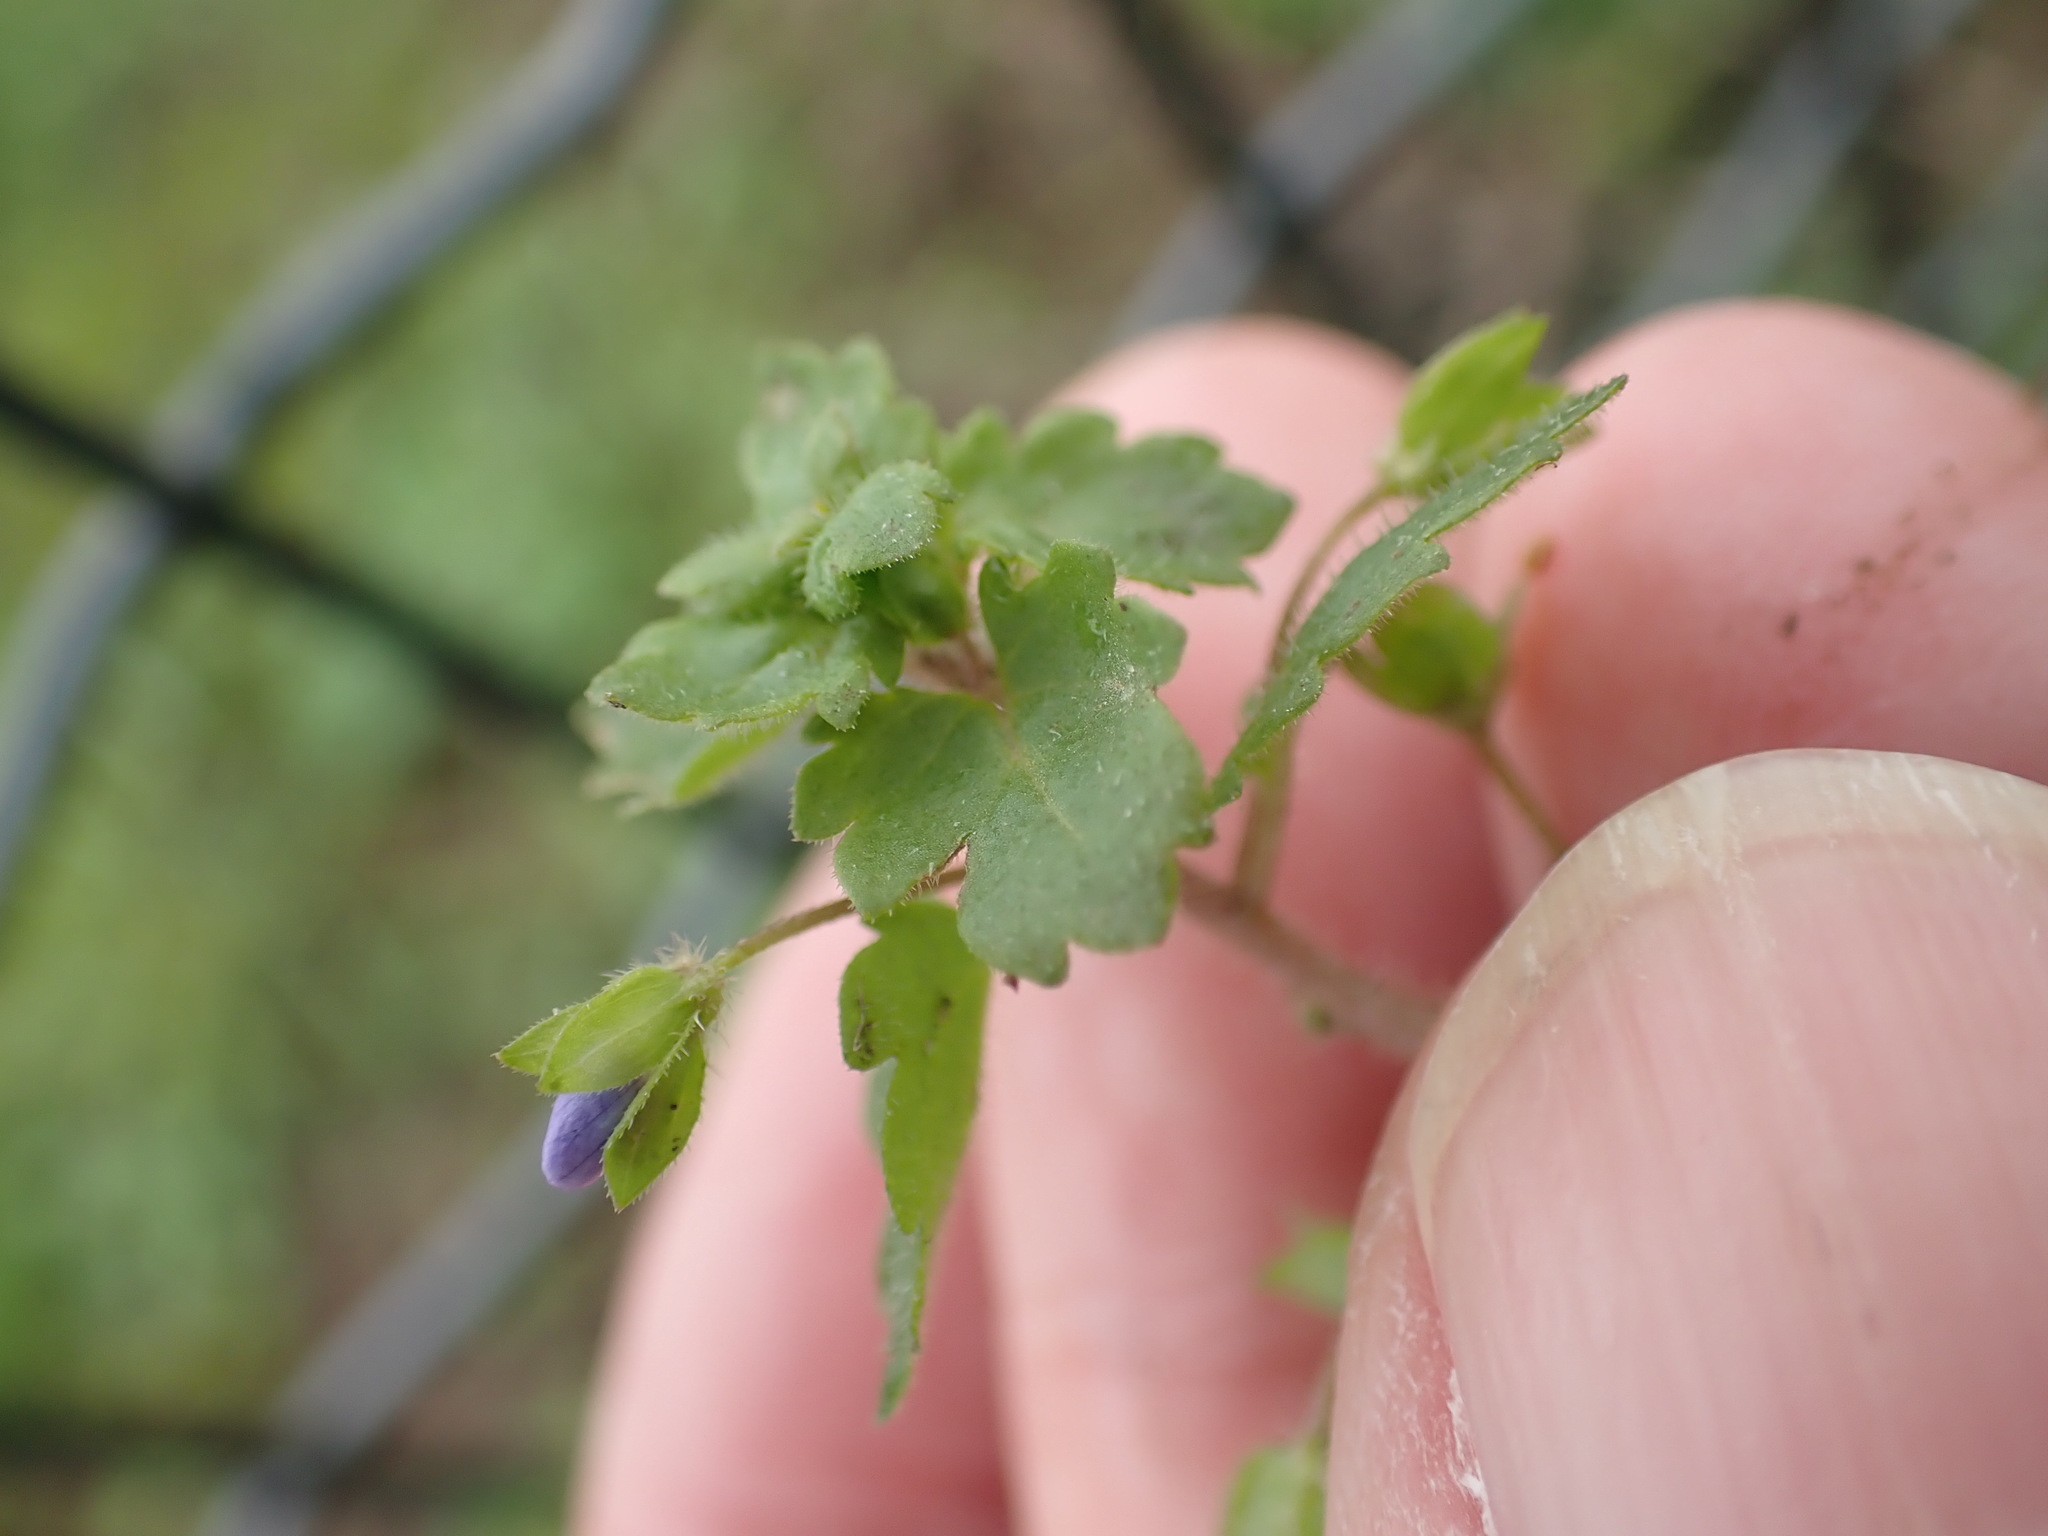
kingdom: Plantae
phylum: Tracheophyta
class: Magnoliopsida
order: Lamiales
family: Plantaginaceae
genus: Veronica
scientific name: Veronica persica
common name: Common field-speedwell
